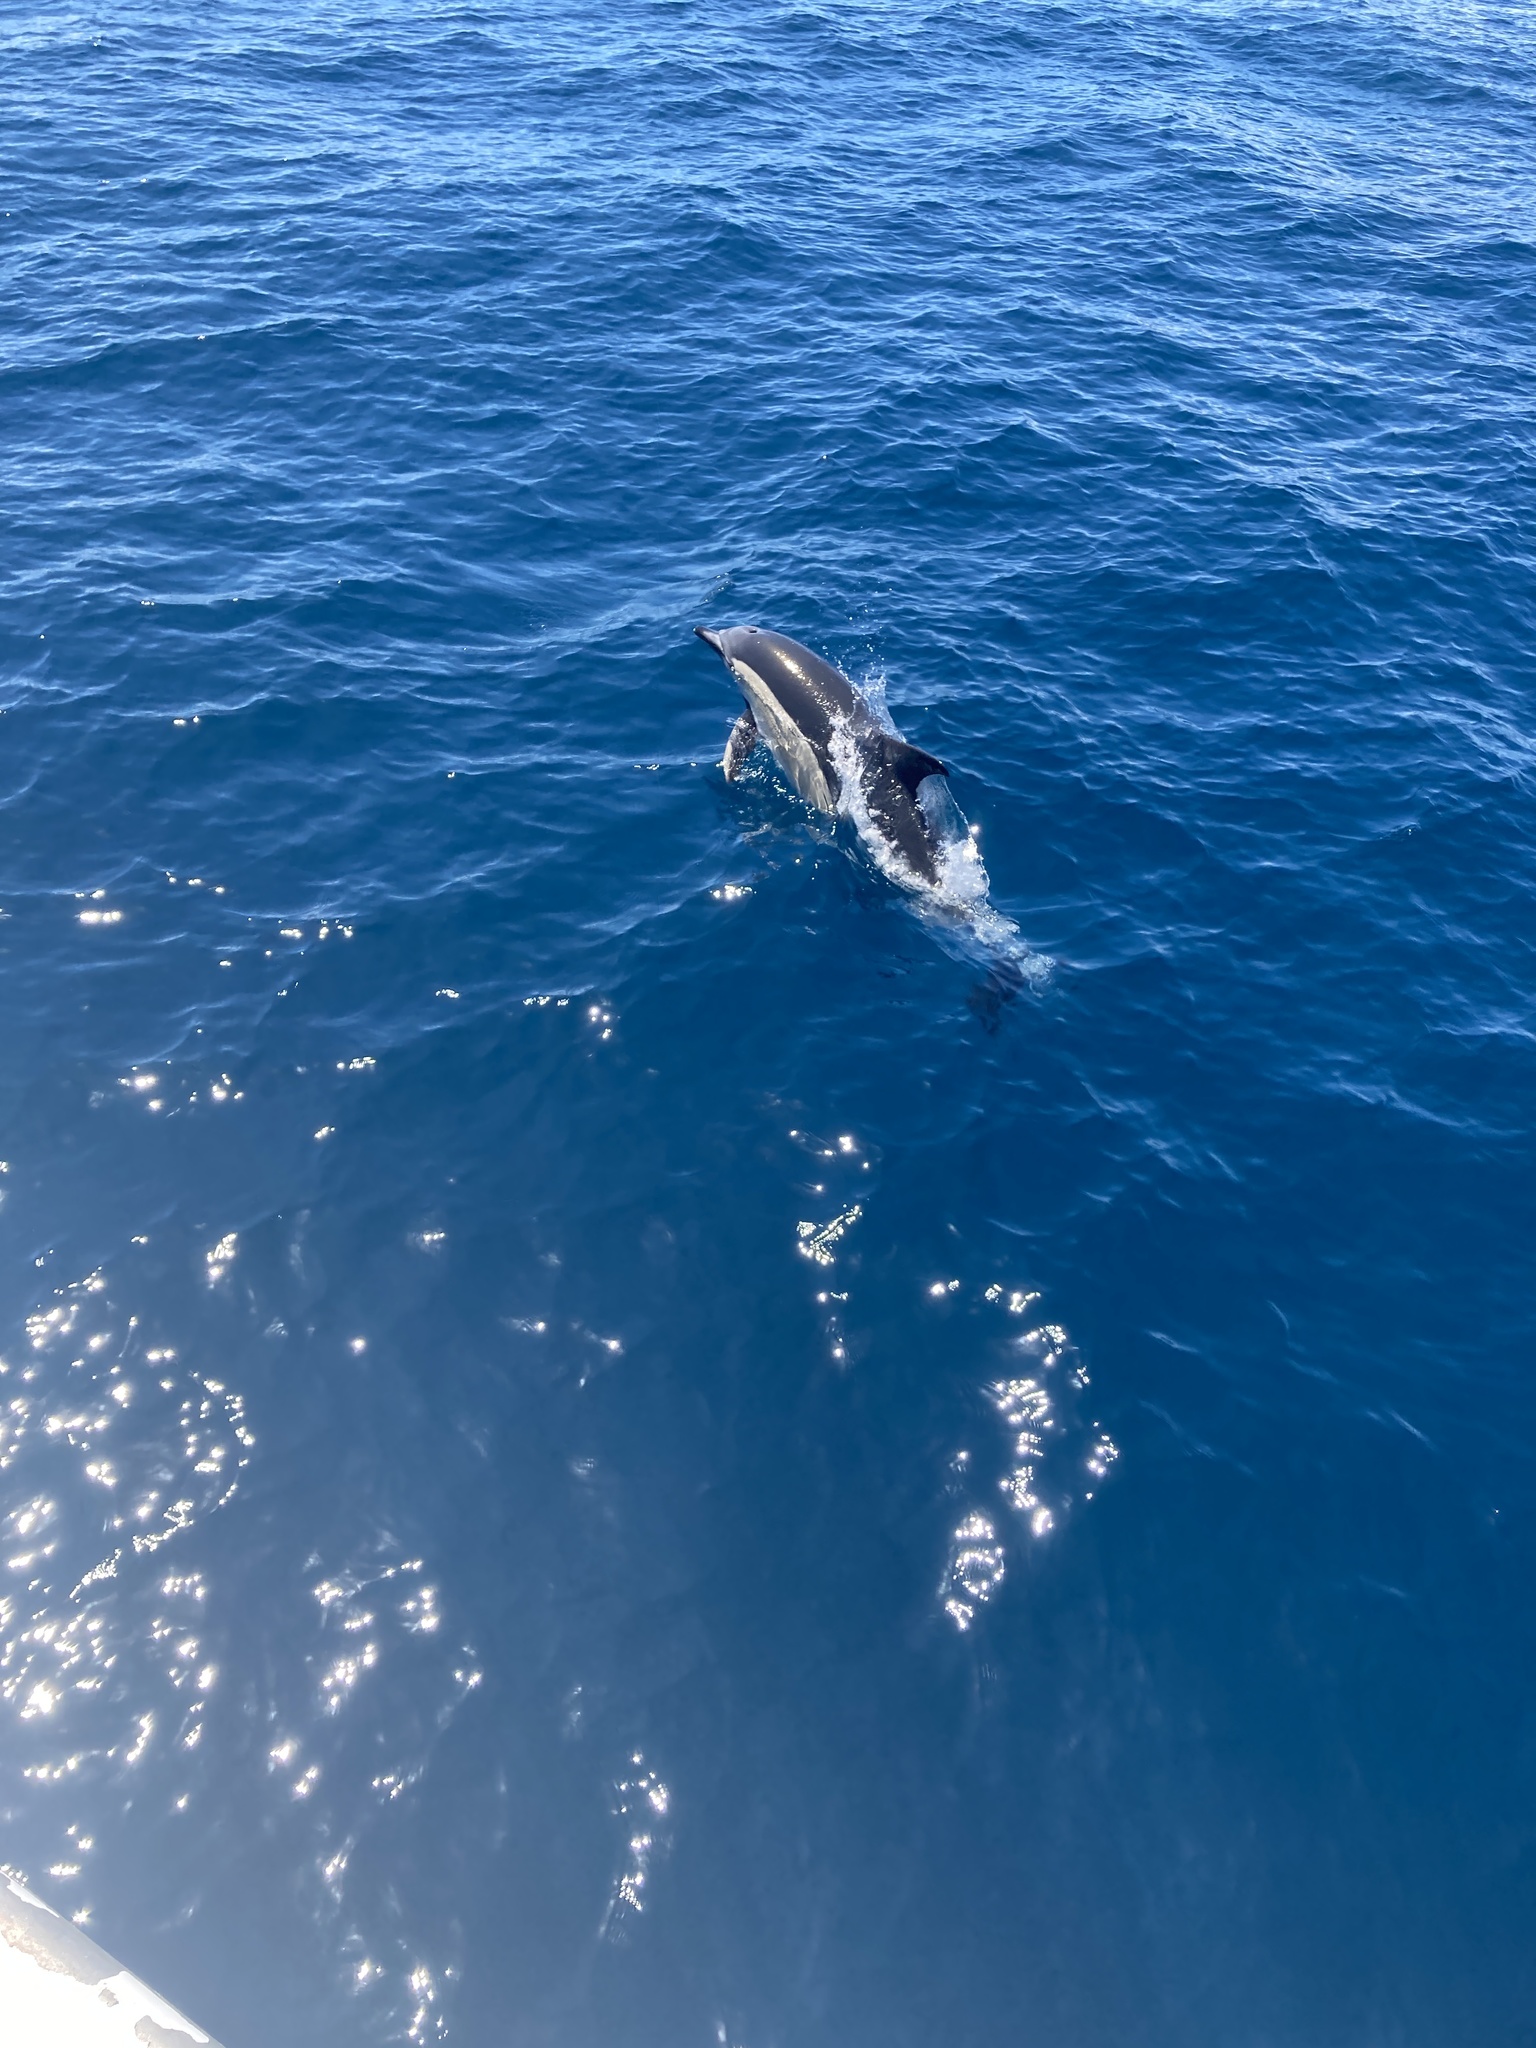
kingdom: Animalia
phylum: Chordata
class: Mammalia
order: Cetacea
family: Delphinidae
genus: Delphinus
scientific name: Delphinus delphis
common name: Common dolphin
